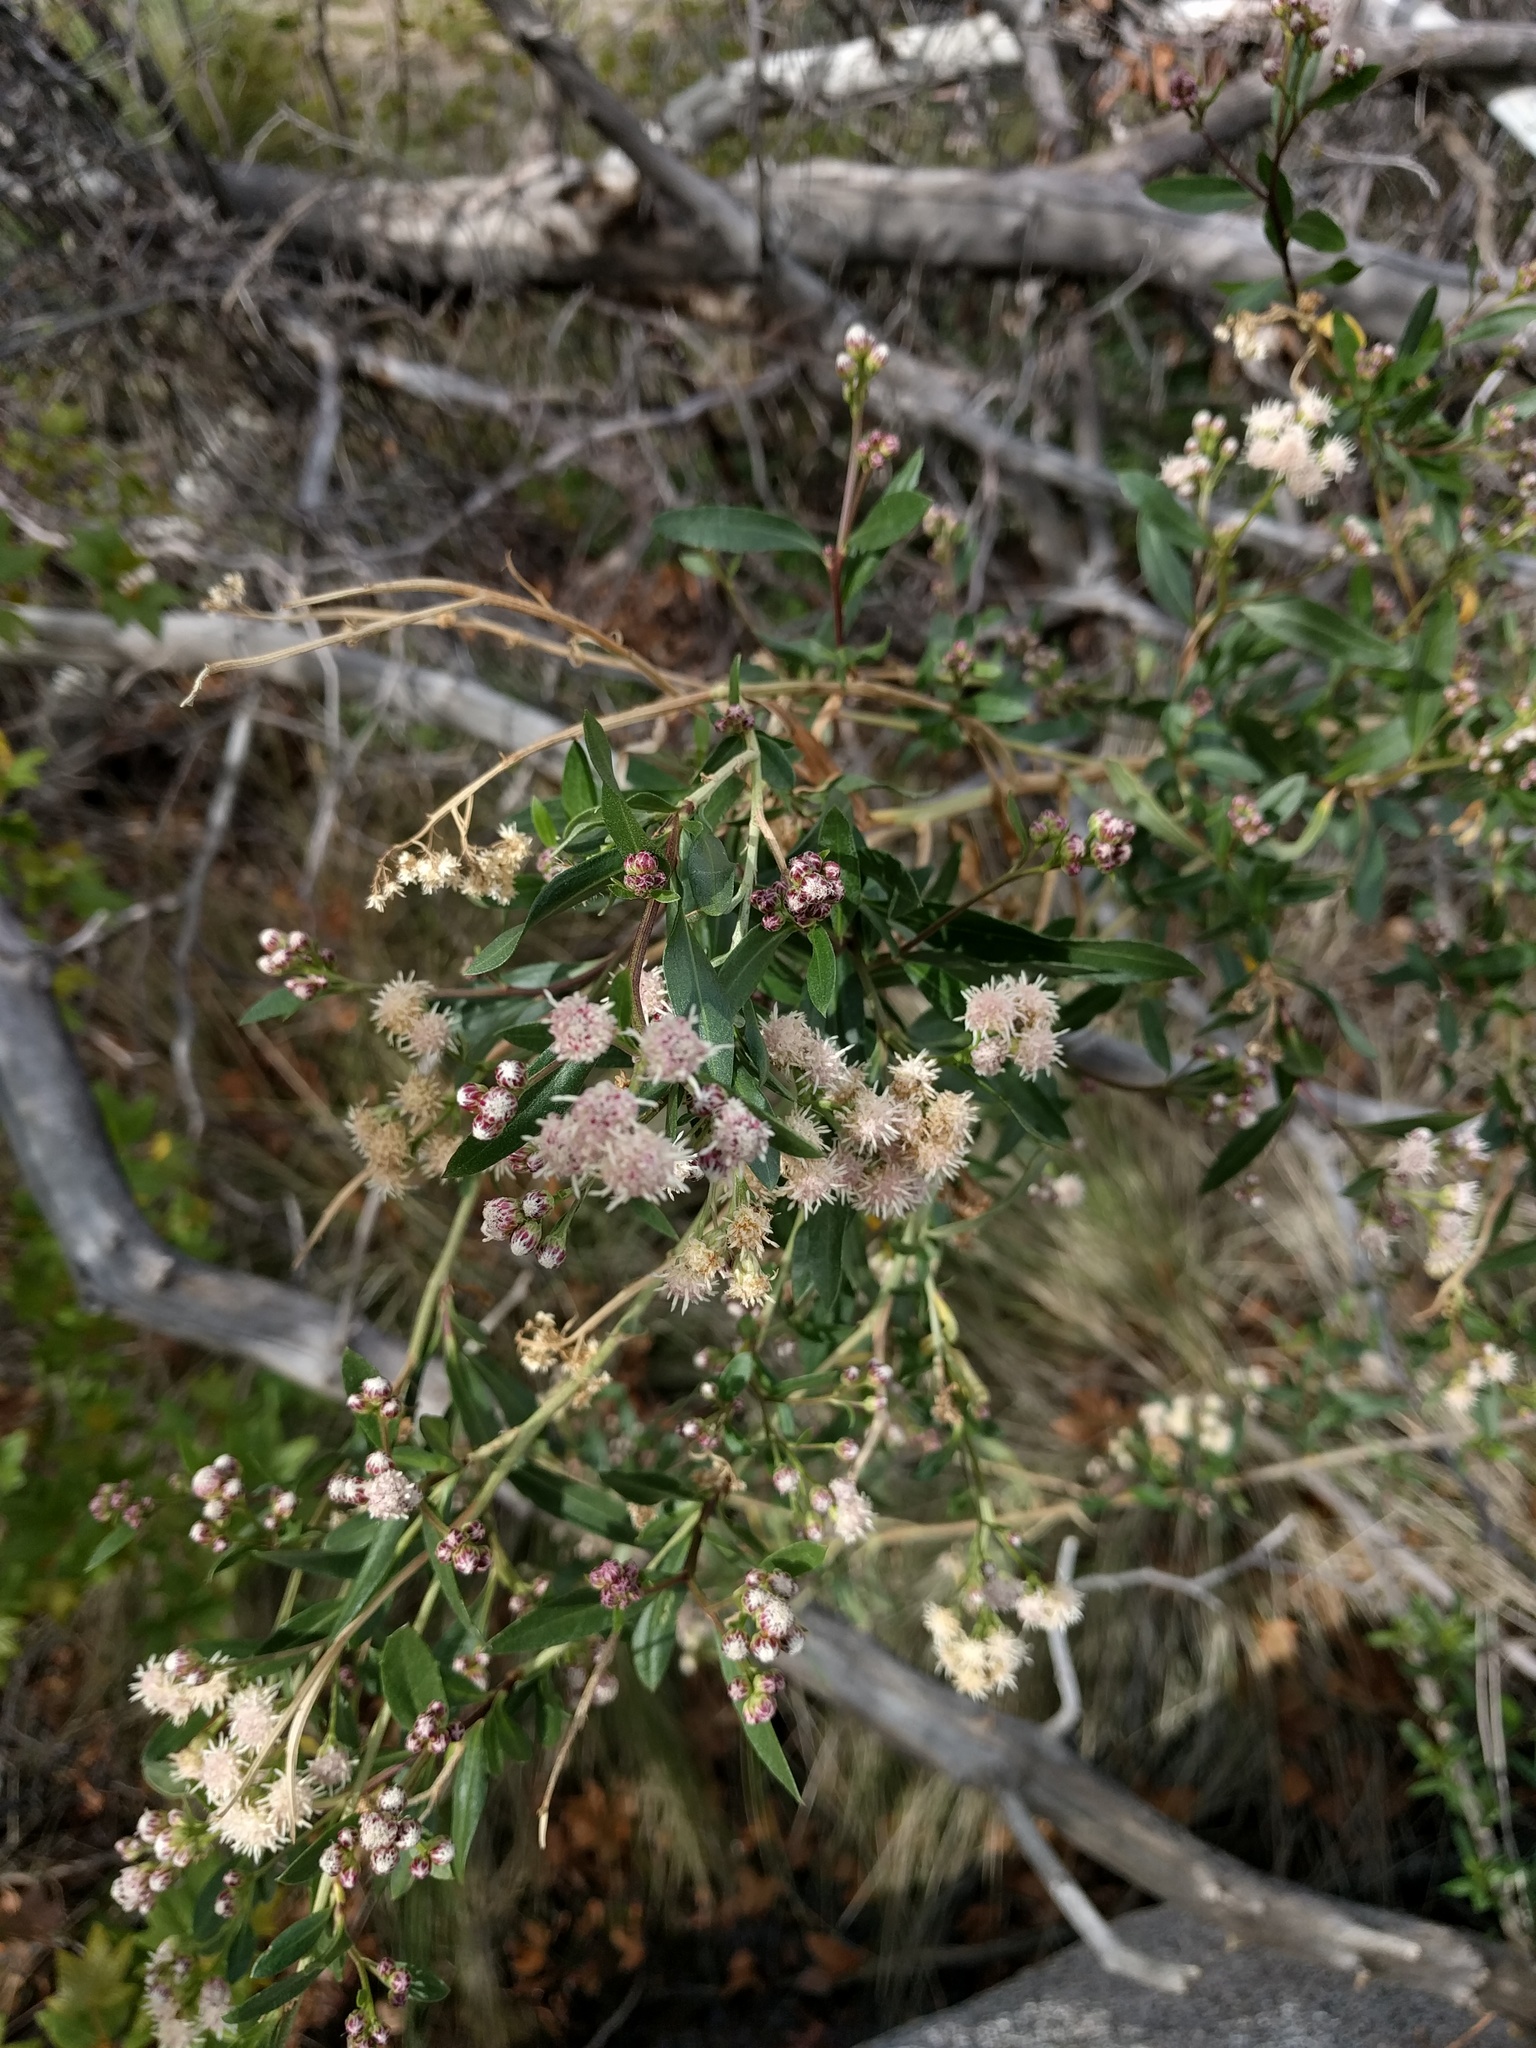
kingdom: Plantae
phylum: Tracheophyta
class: Magnoliopsida
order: Asterales
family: Asteraceae
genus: Baccharis
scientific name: Baccharis salicifolia
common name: Sticky baccharis
